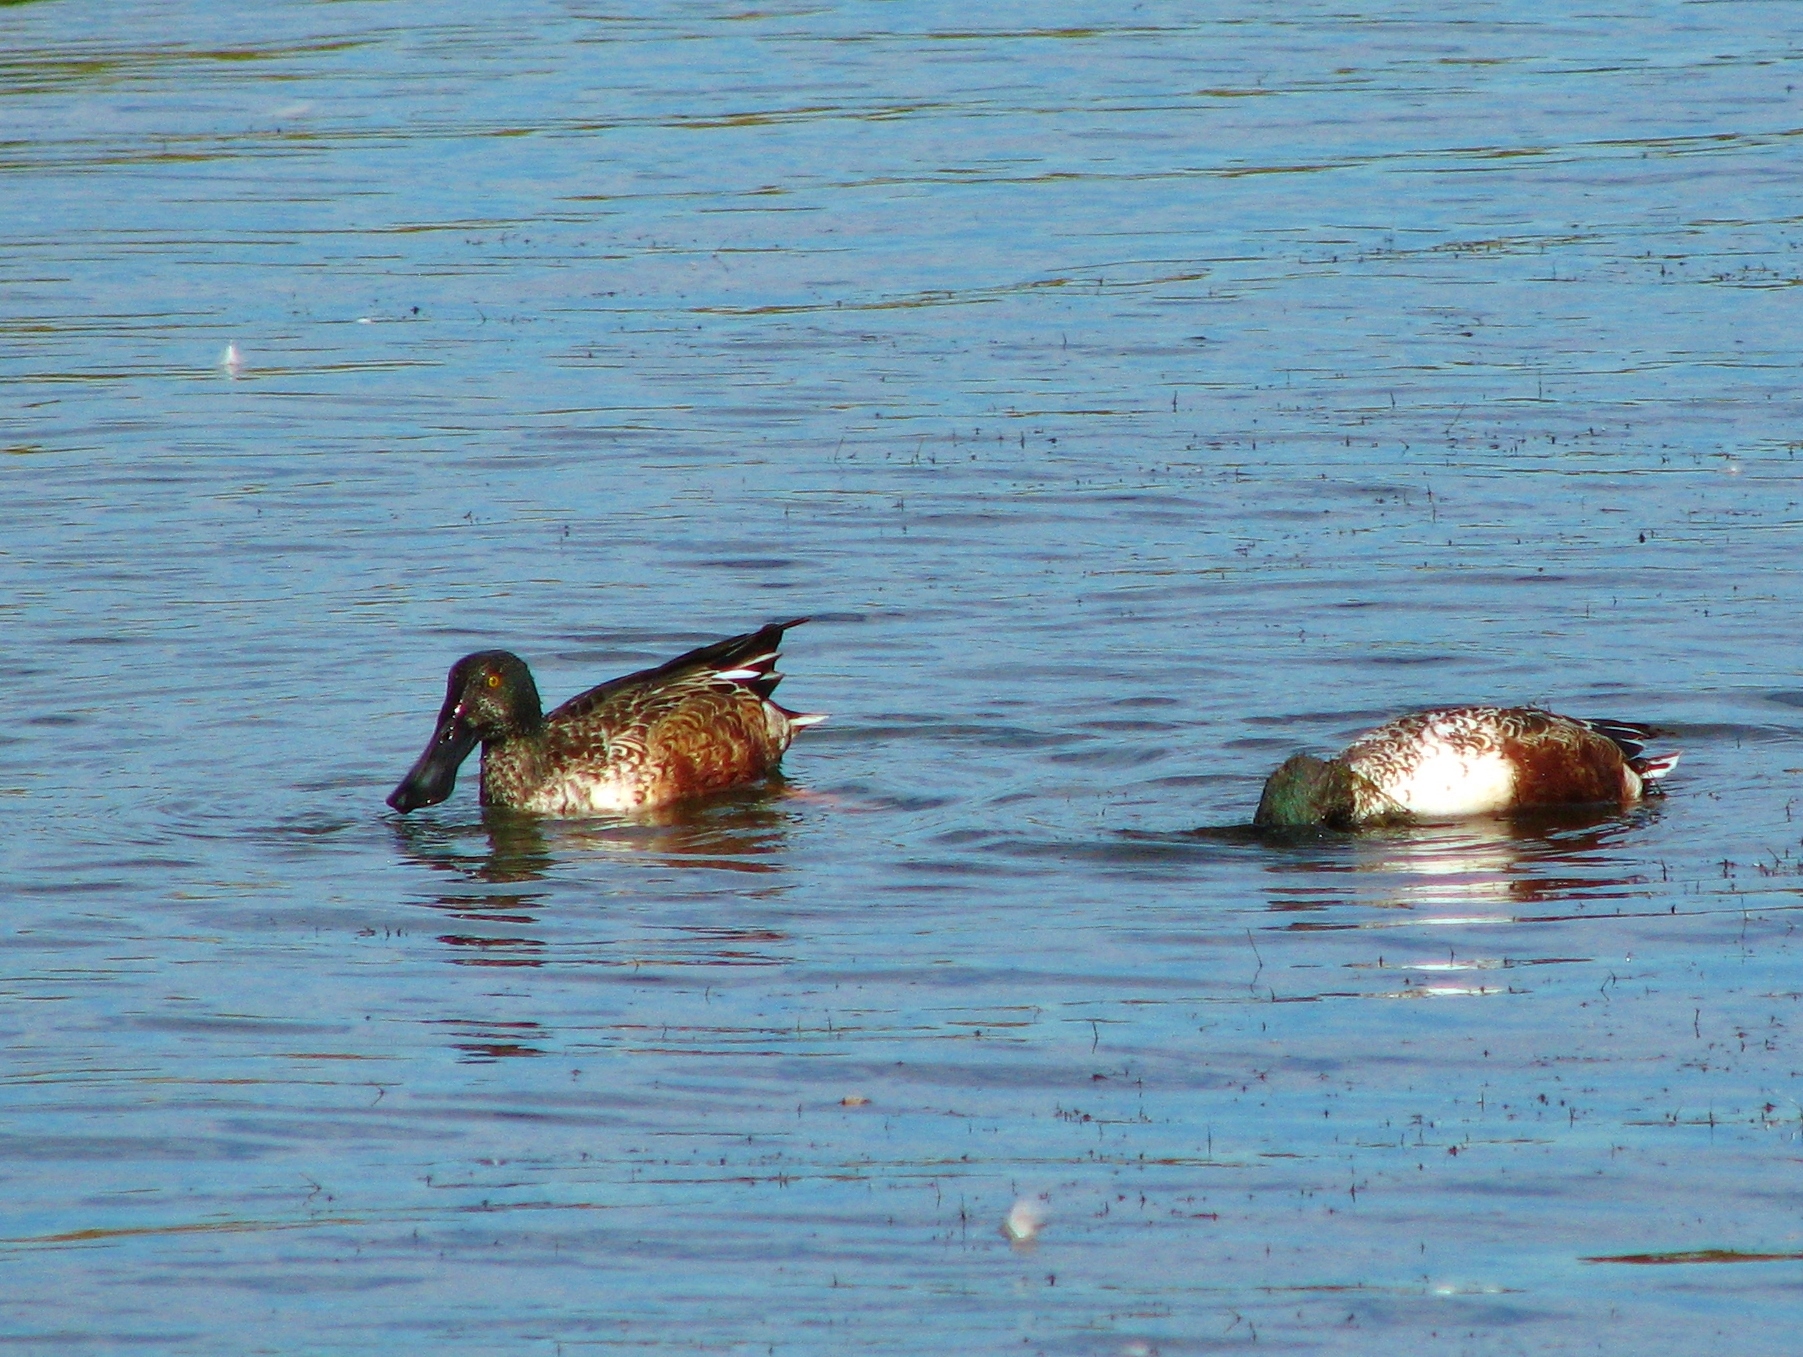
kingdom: Animalia
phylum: Chordata
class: Aves
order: Anseriformes
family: Anatidae
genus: Spatula
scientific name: Spatula clypeata
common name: Northern shoveler
